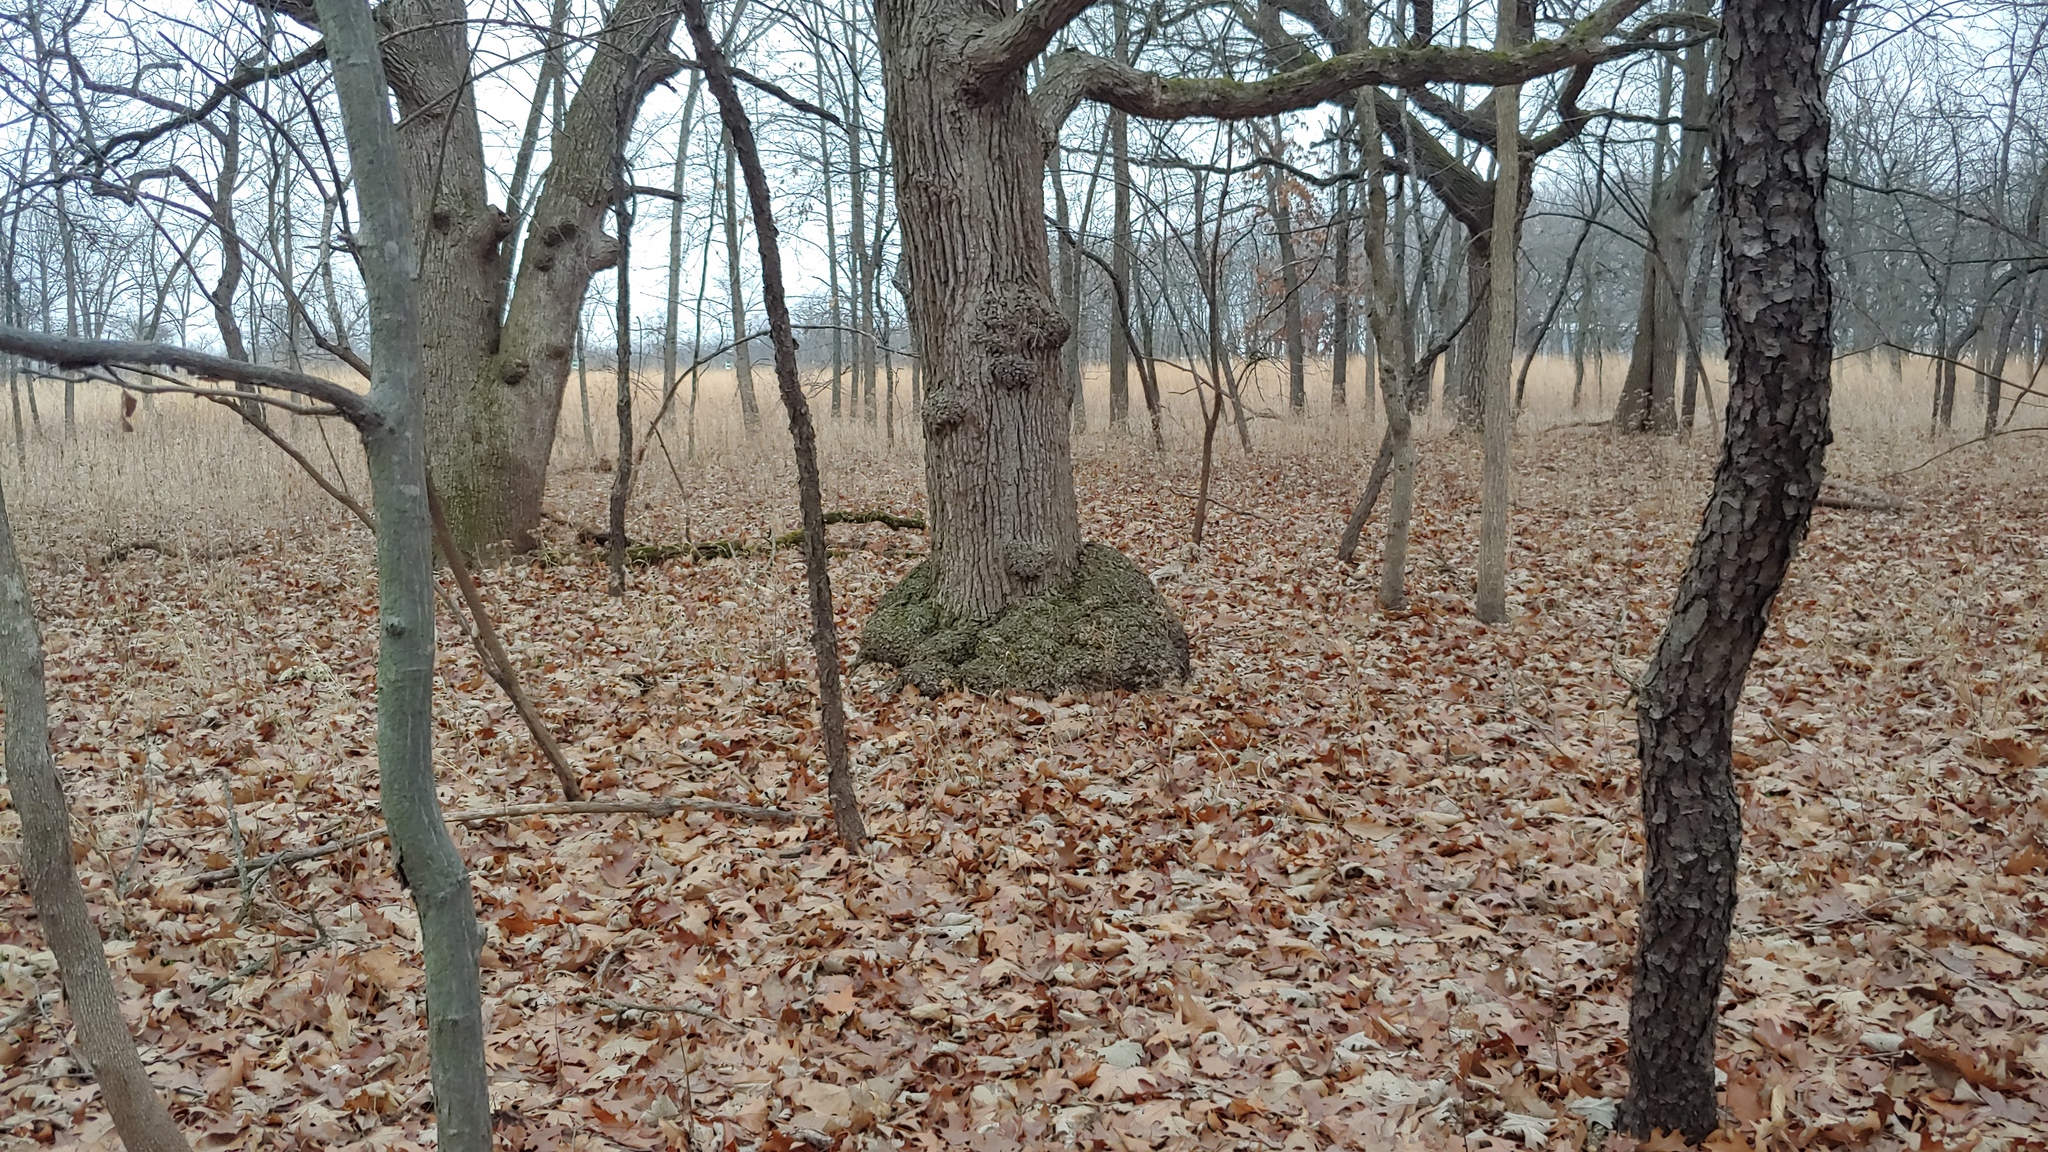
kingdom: Bacteria
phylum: Proteobacteria
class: Alphaproteobacteria
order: Rhizobiales
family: Rhizobiaceae
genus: Rhizobium
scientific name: Rhizobium Agrobacterium radiobacter
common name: Bacterial crown gall
